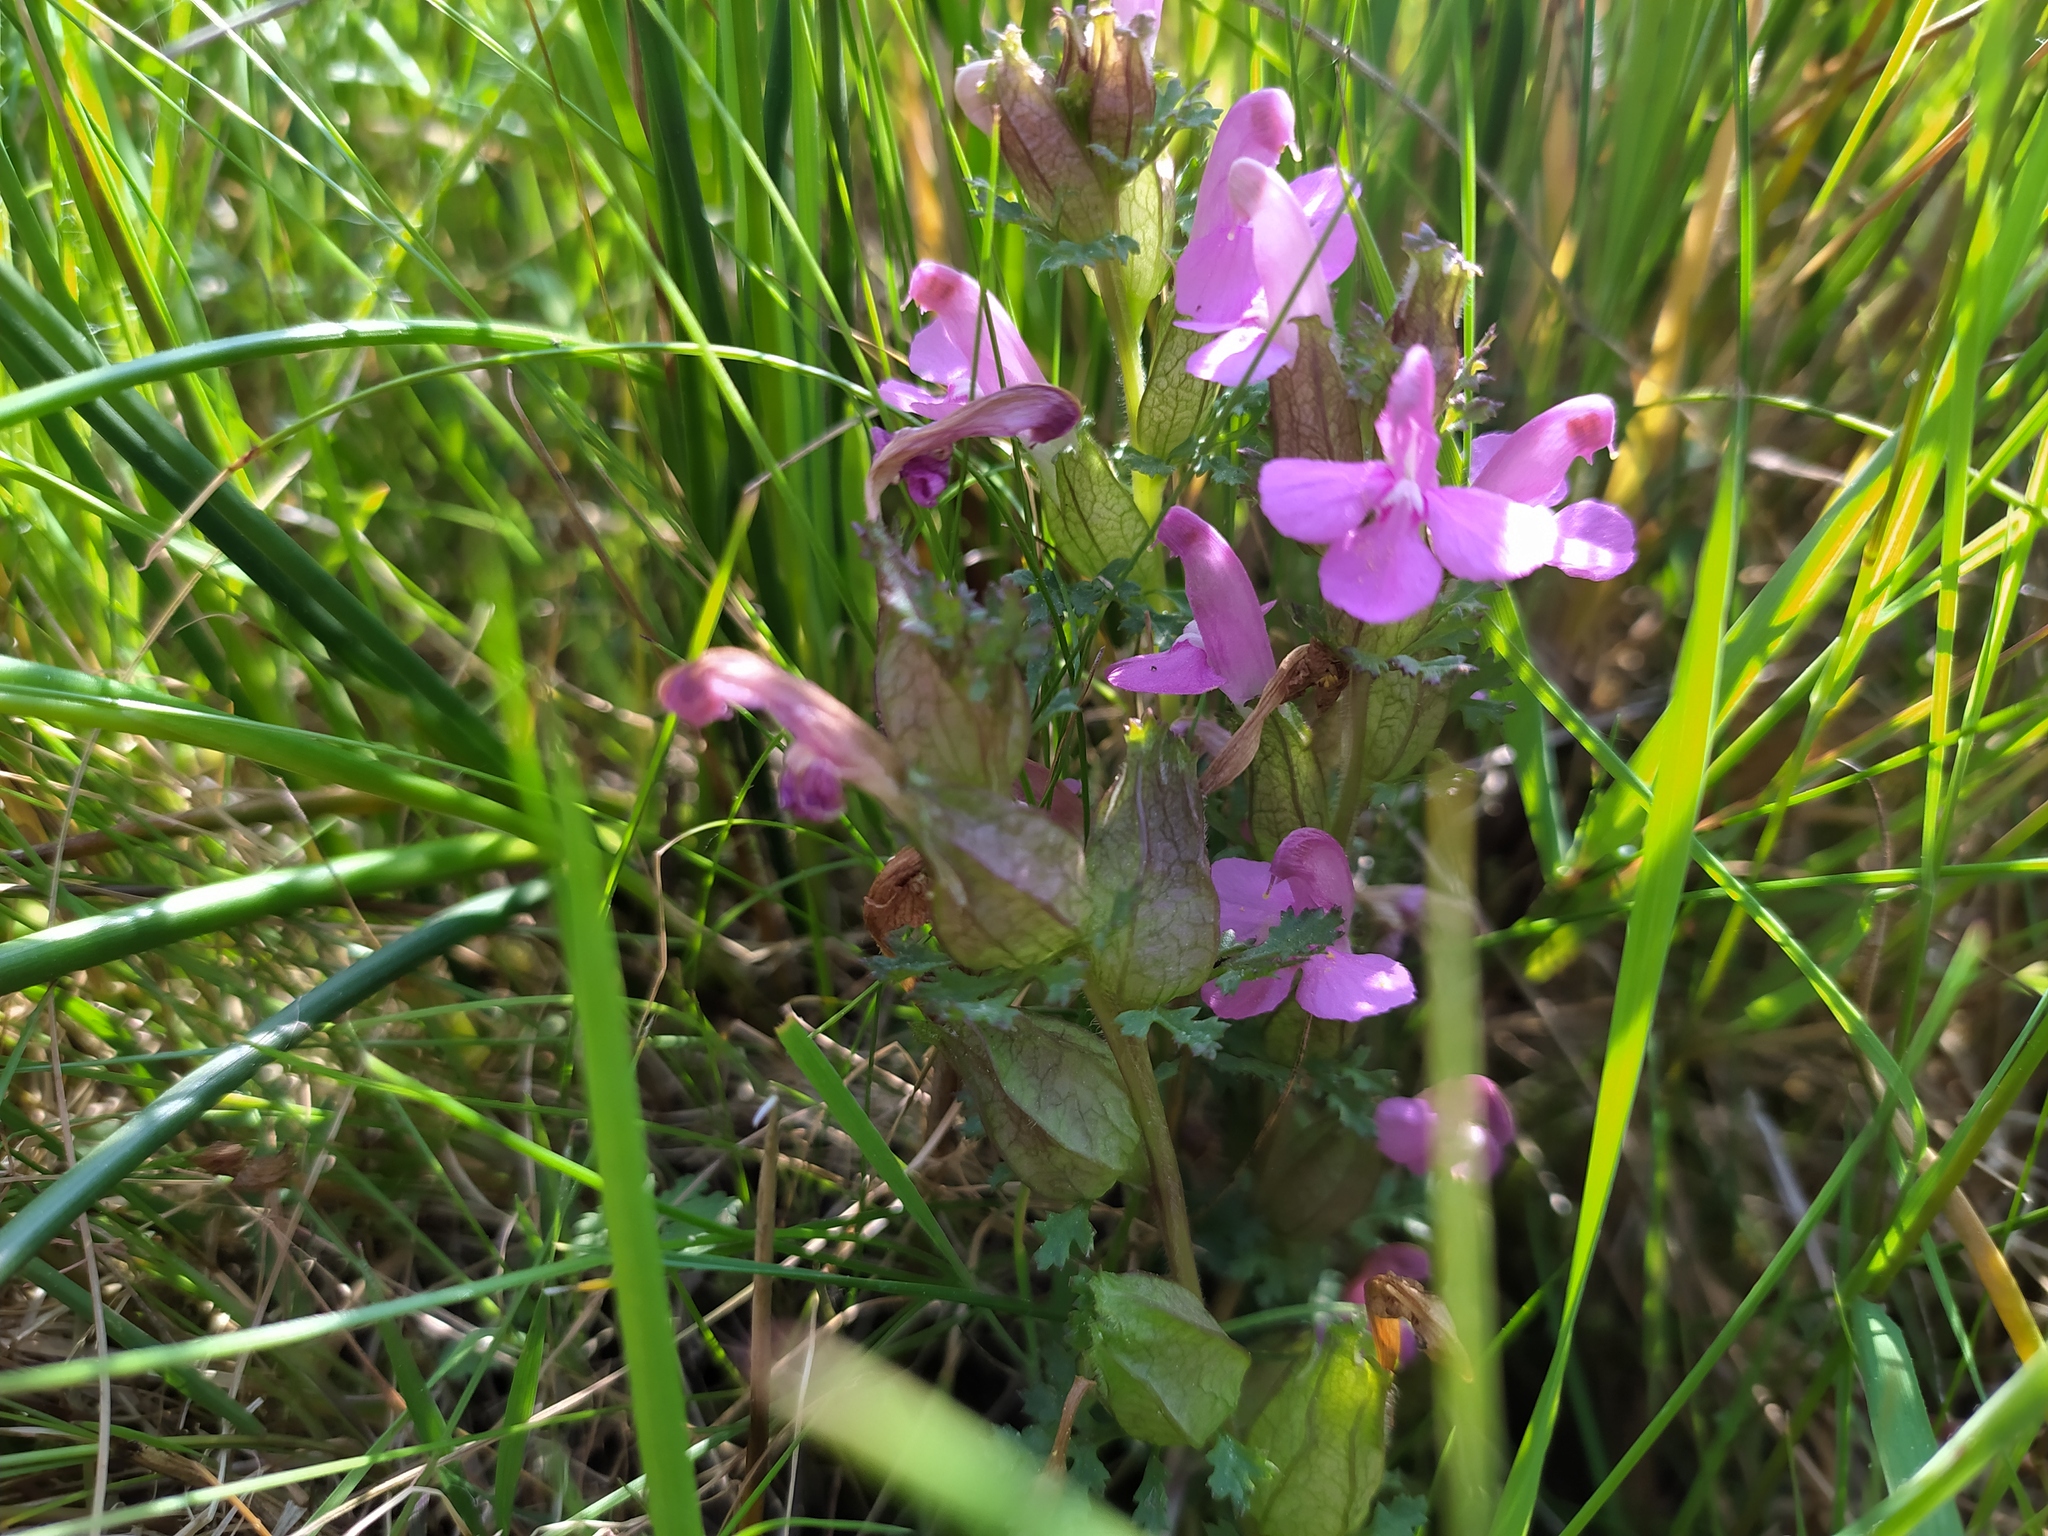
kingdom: Plantae
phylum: Tracheophyta
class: Magnoliopsida
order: Lamiales
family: Orobanchaceae
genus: Pedicularis
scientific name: Pedicularis sylvatica
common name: Lousewort
